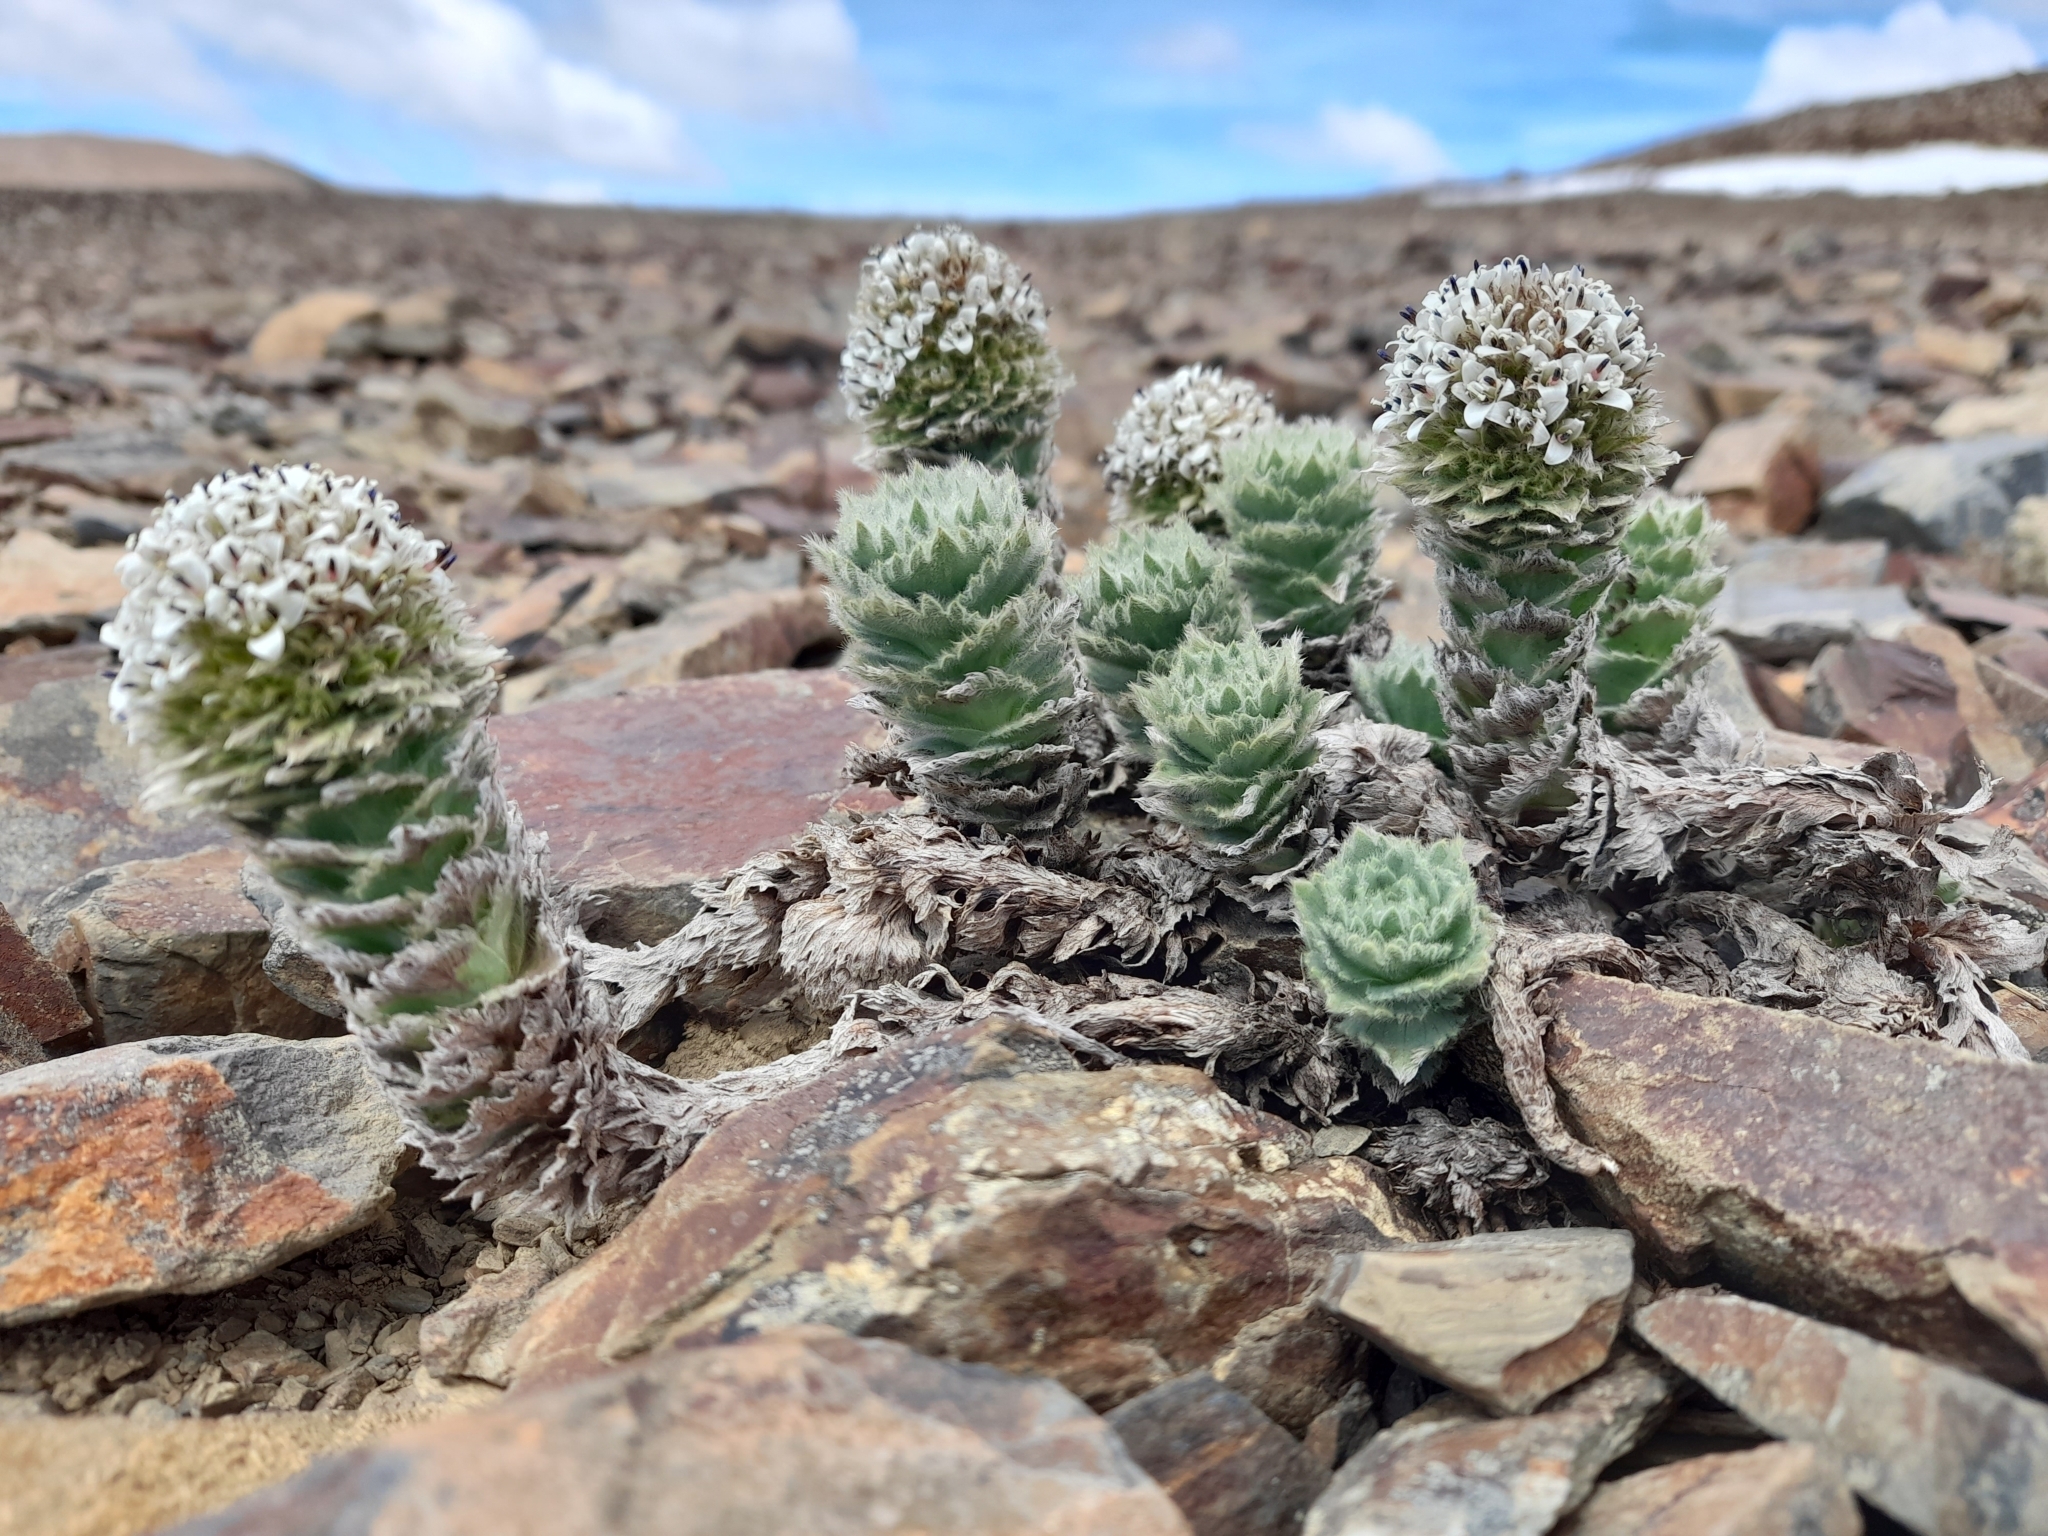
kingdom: Plantae
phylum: Tracheophyta
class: Magnoliopsida
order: Asterales
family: Asteraceae
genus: Nassauvia
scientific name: Nassauvia latissima
